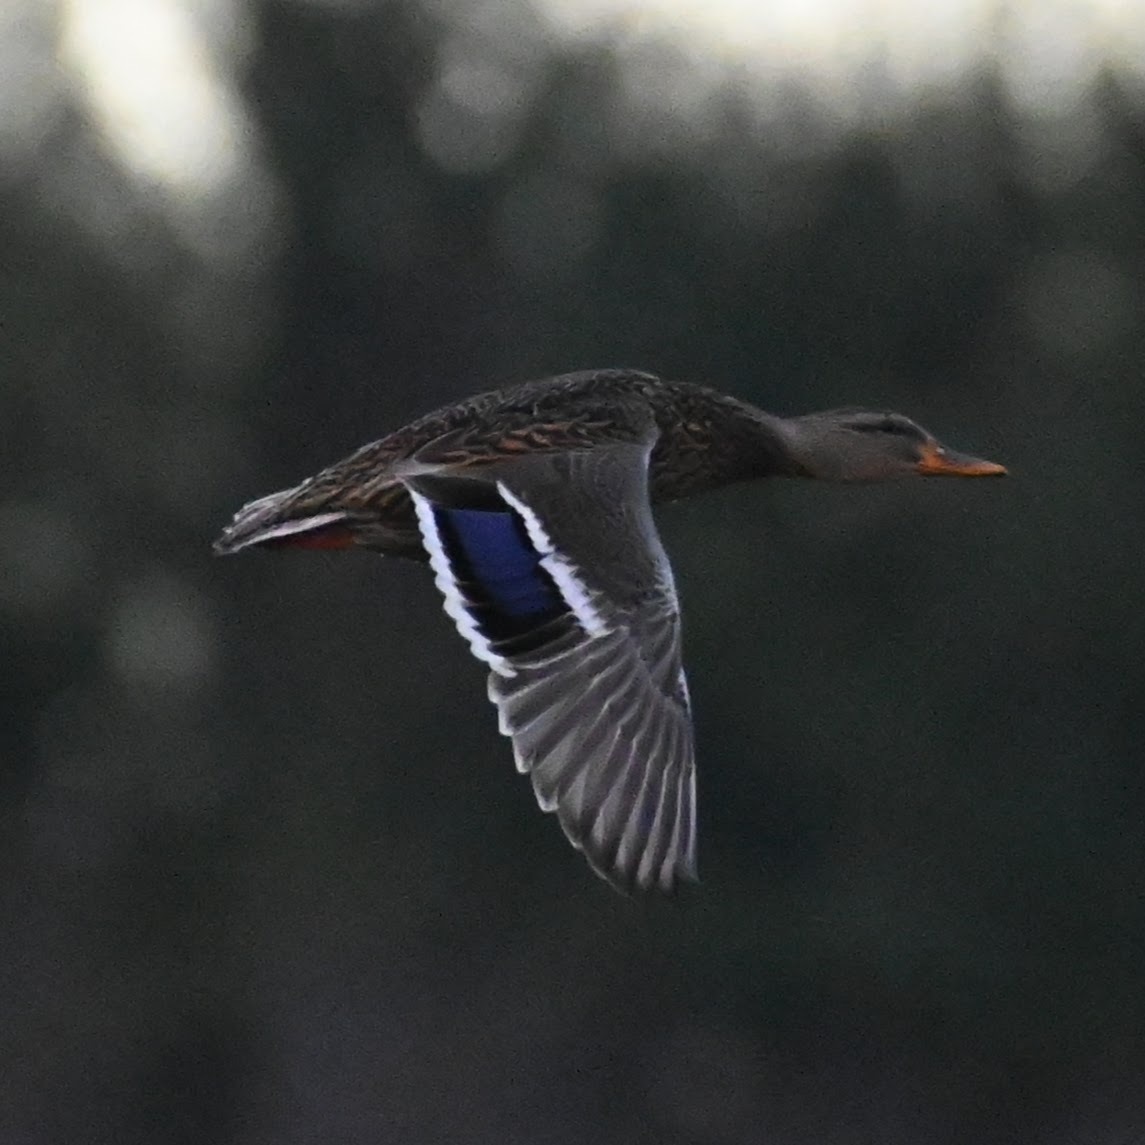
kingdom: Animalia
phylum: Chordata
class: Aves
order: Anseriformes
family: Anatidae
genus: Anas
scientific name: Anas platyrhynchos
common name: Mallard
